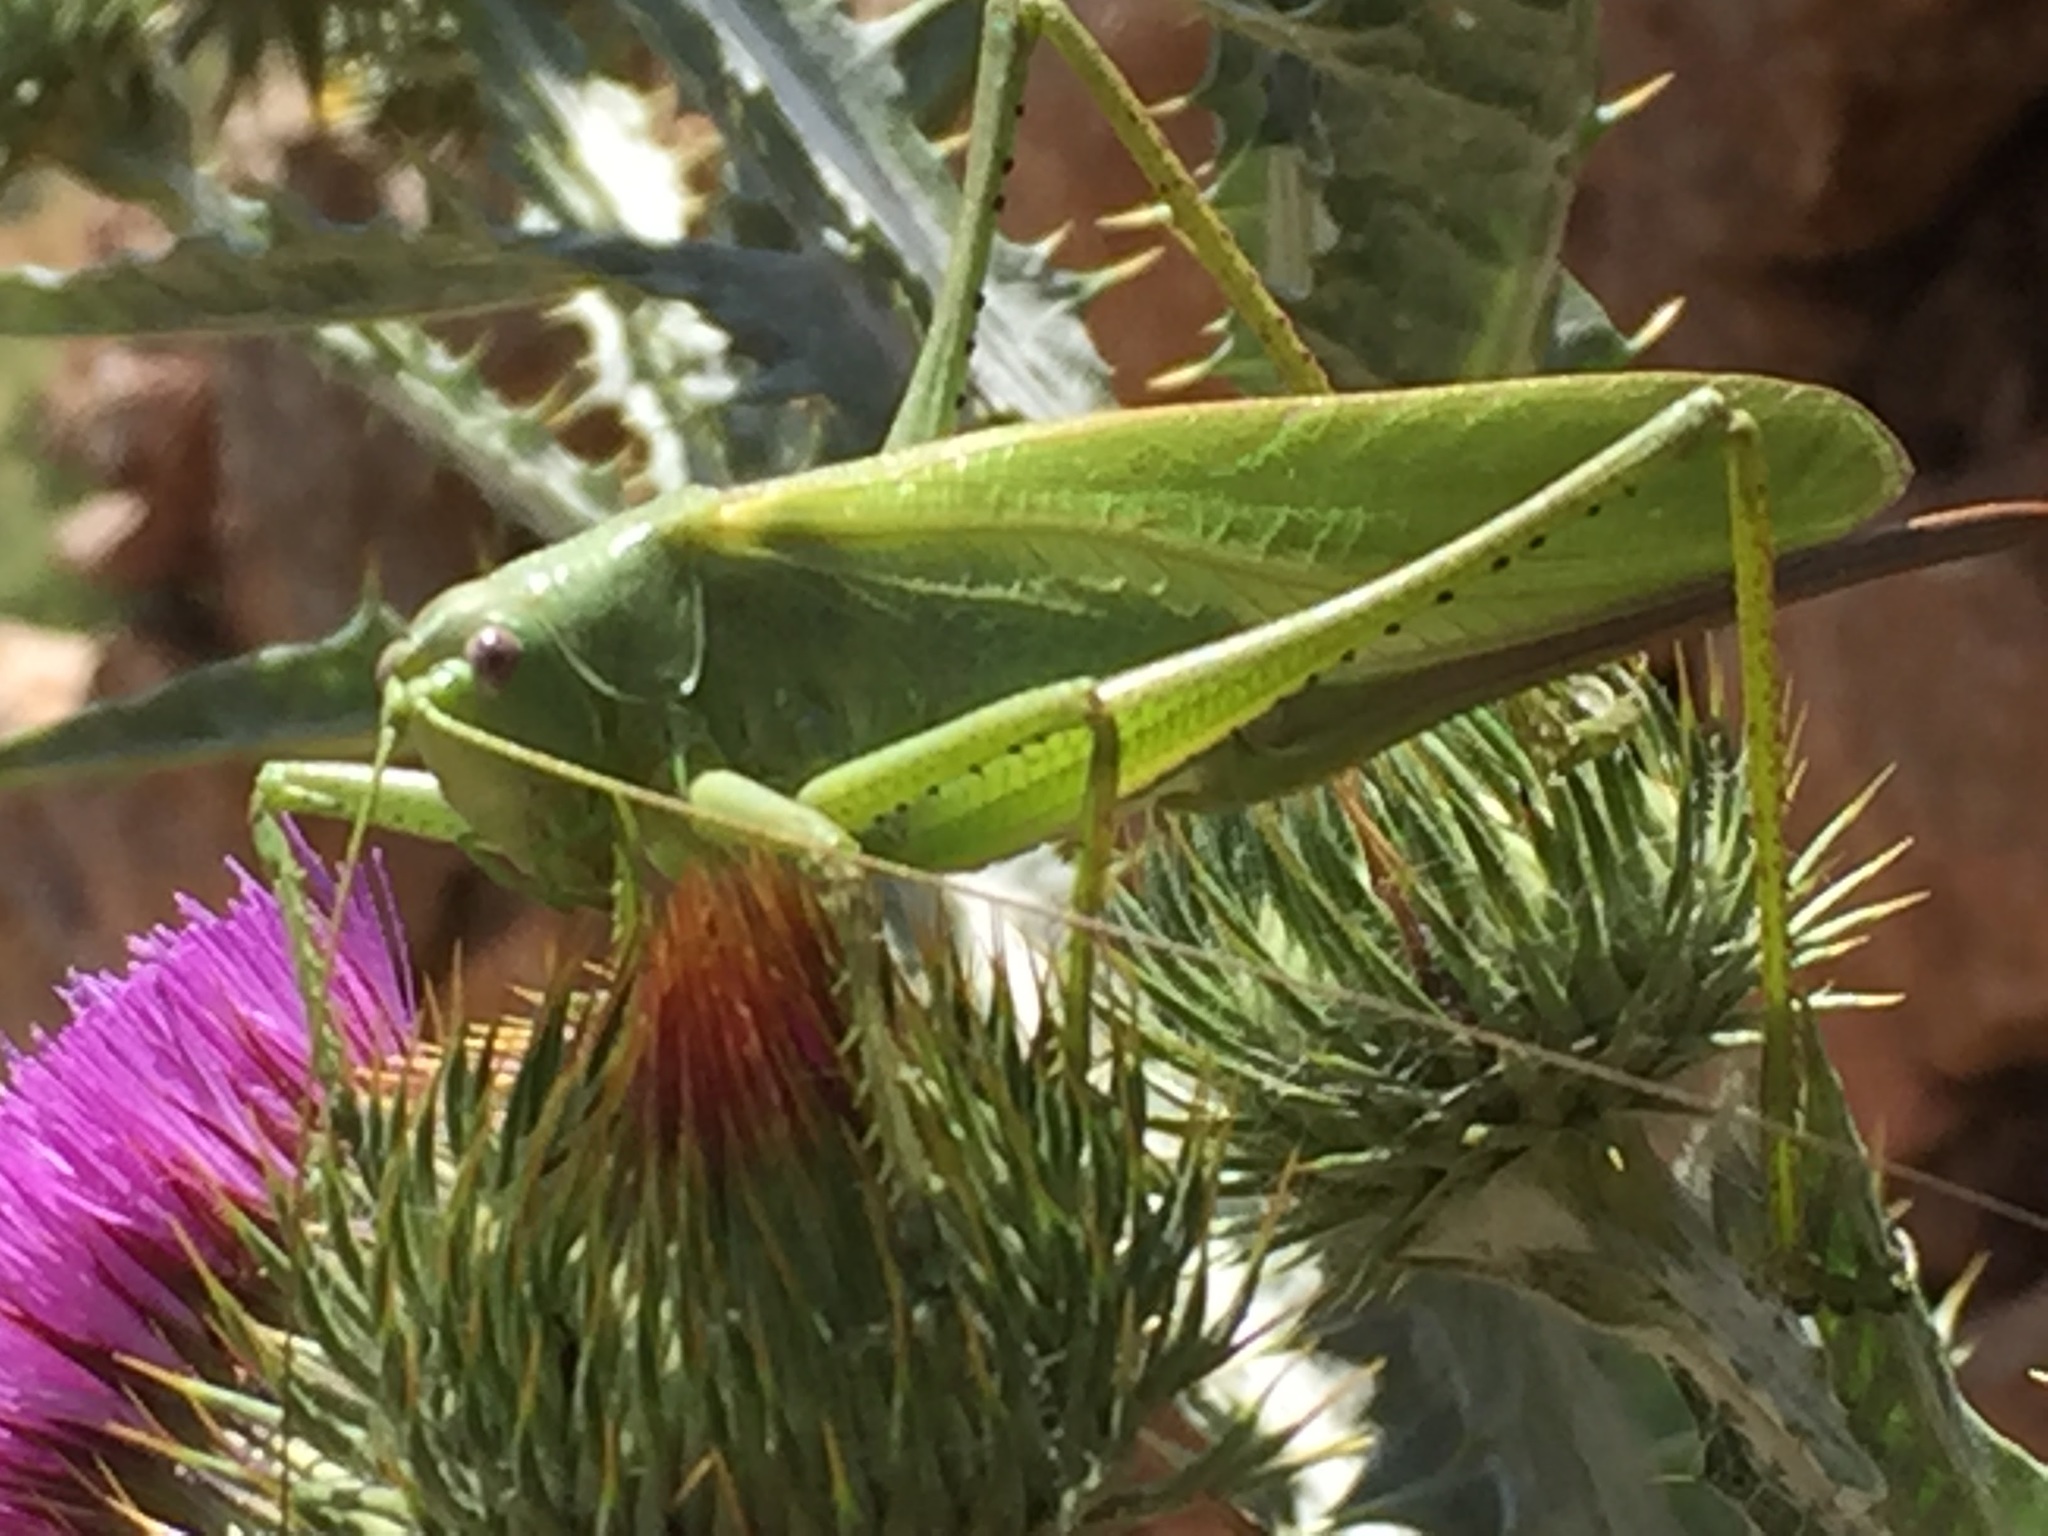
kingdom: Animalia
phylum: Arthropoda
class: Insecta
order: Orthoptera
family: Tettigoniidae
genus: Tettigonia
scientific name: Tettigonia caudata
